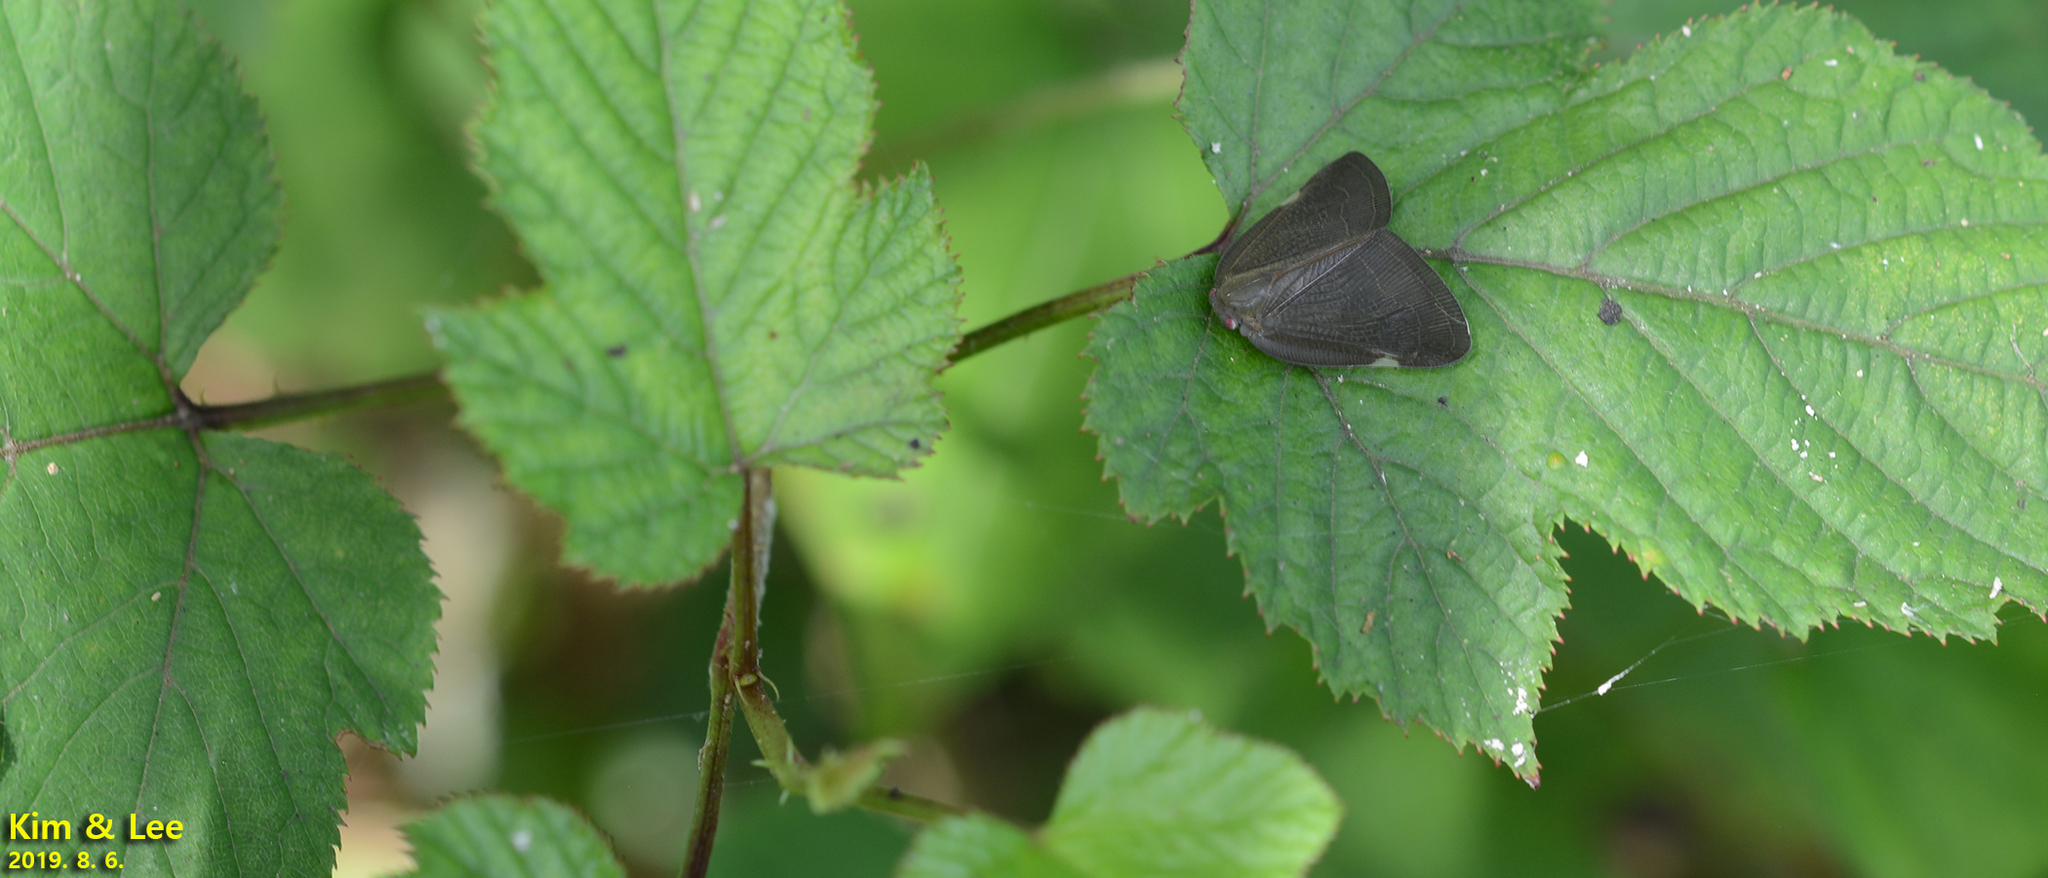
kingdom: Animalia
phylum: Arthropoda
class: Insecta
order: Hemiptera
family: Ricaniidae
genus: Ricanula
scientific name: Ricanula sublimata
